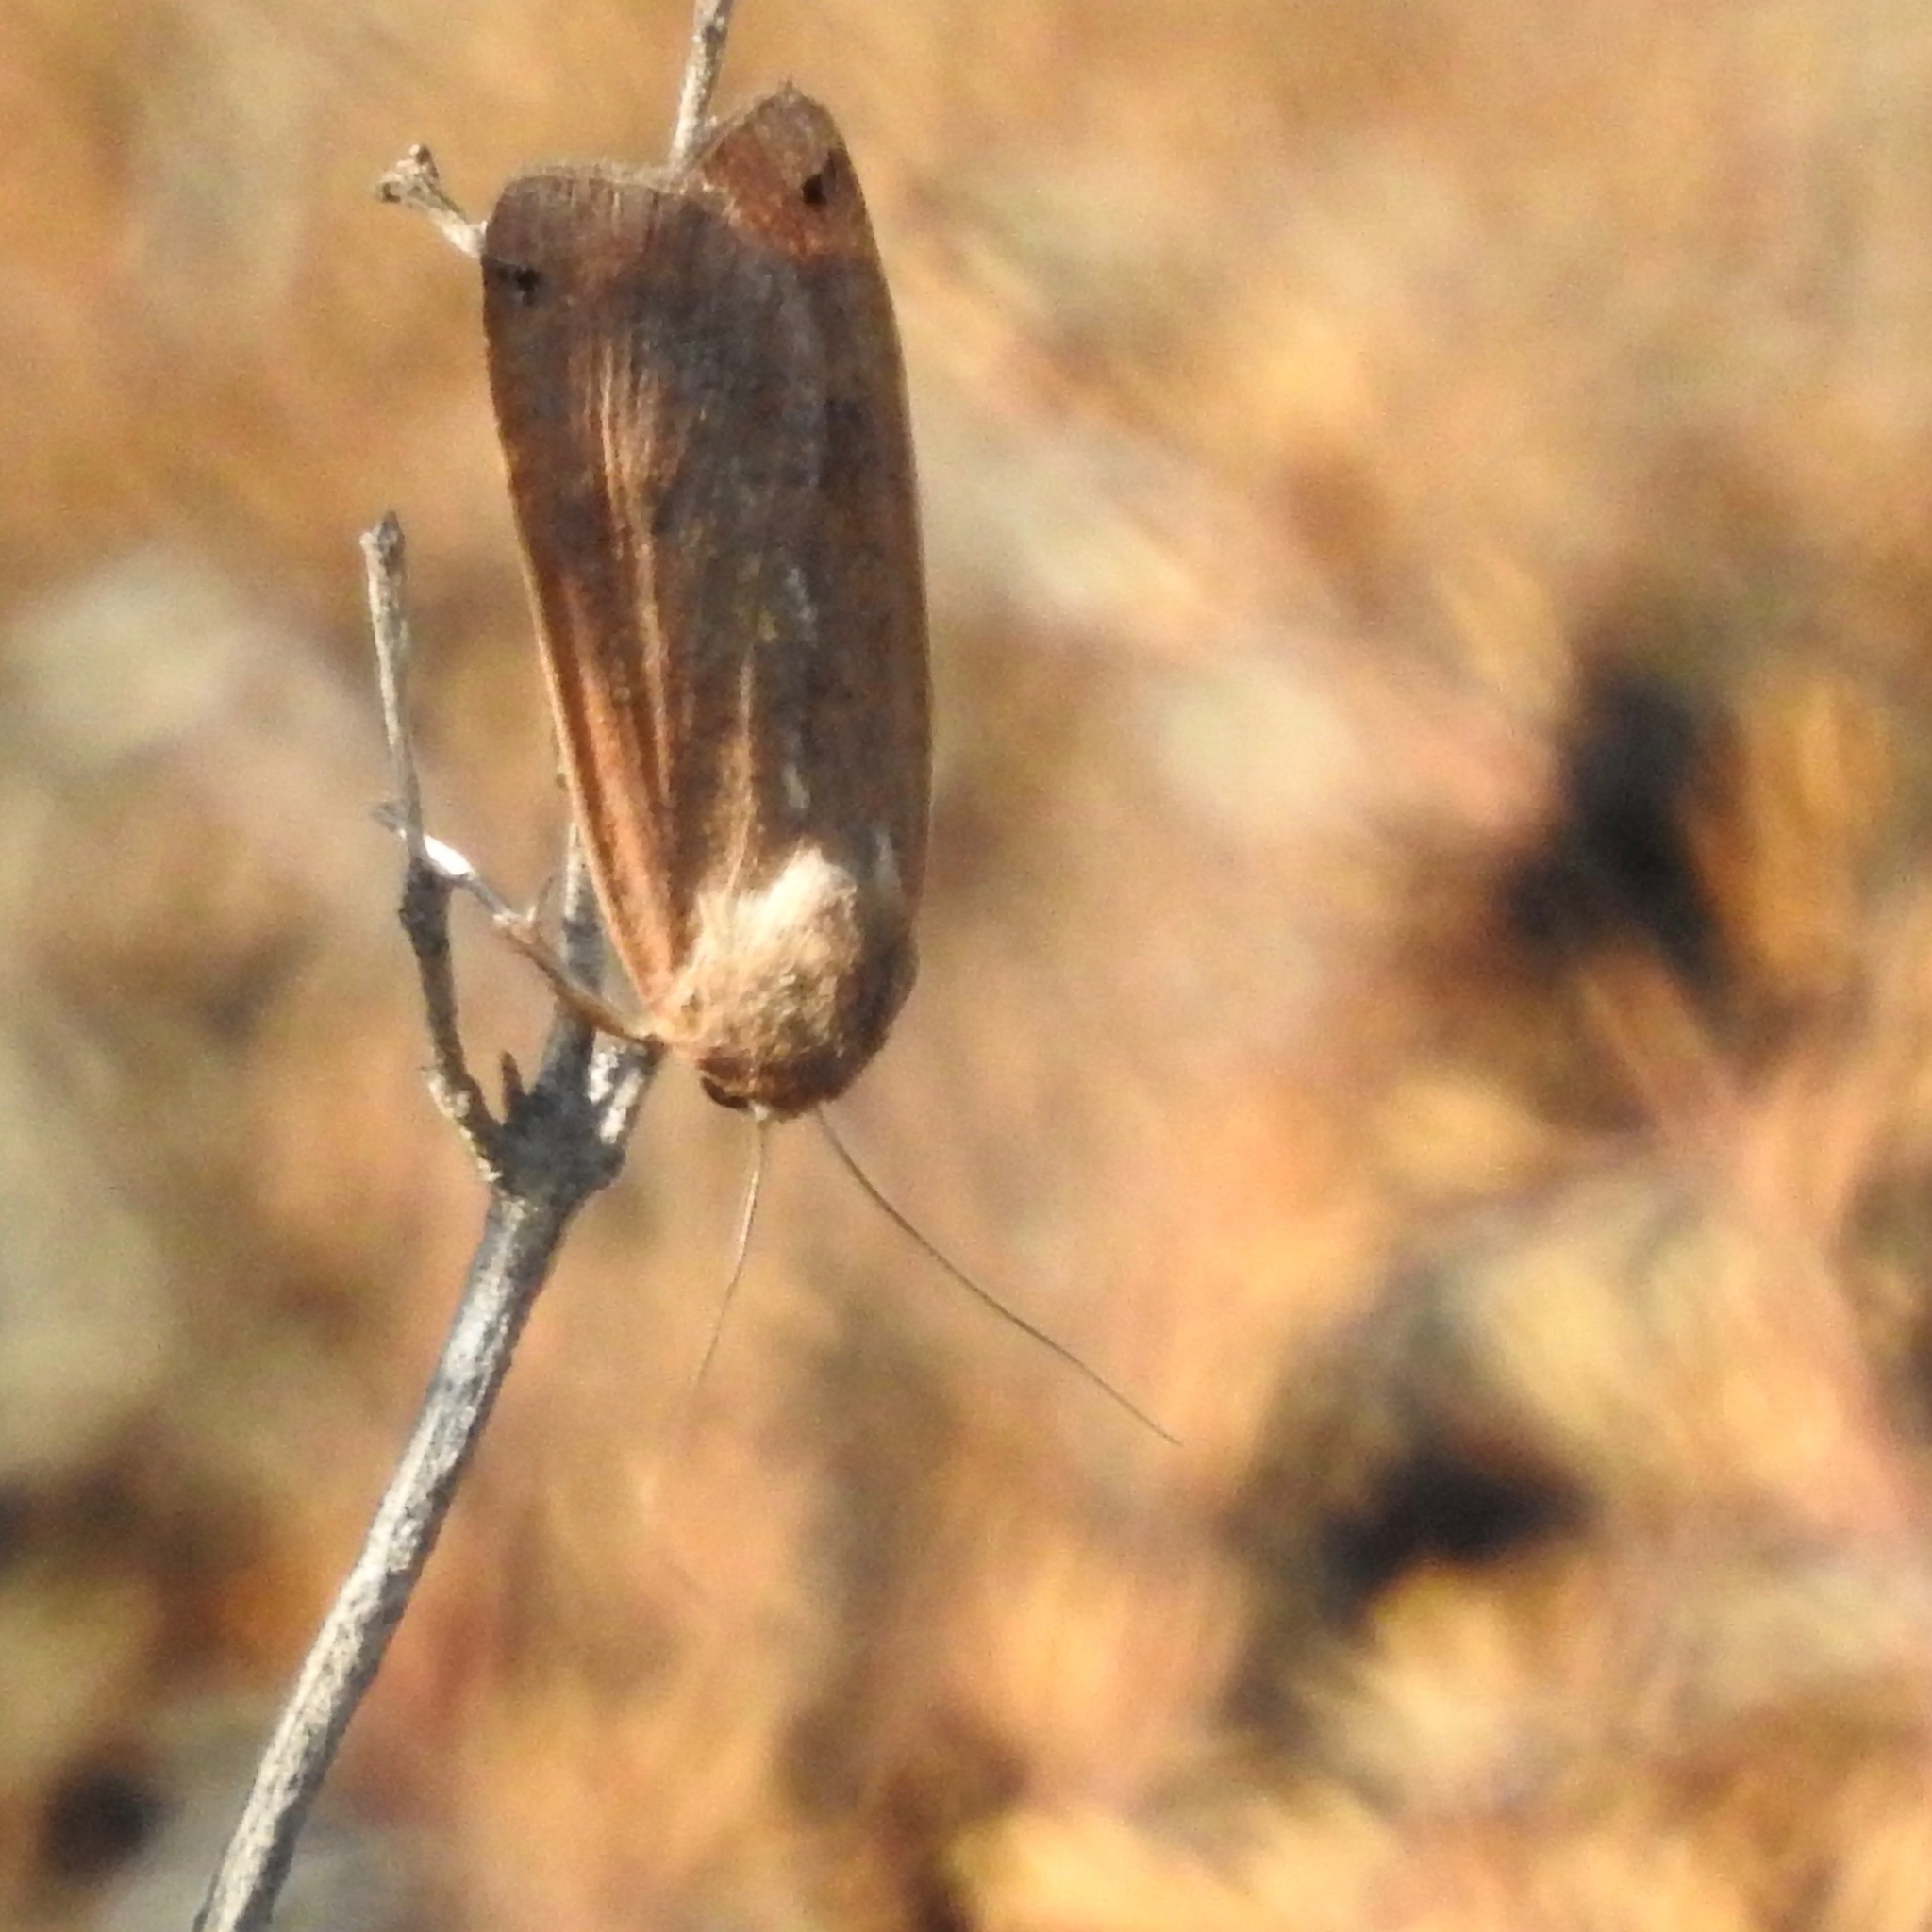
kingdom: Animalia
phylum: Arthropoda
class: Insecta
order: Lepidoptera
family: Noctuidae
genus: Noctua
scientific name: Noctua pronuba
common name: Large yellow underwing
